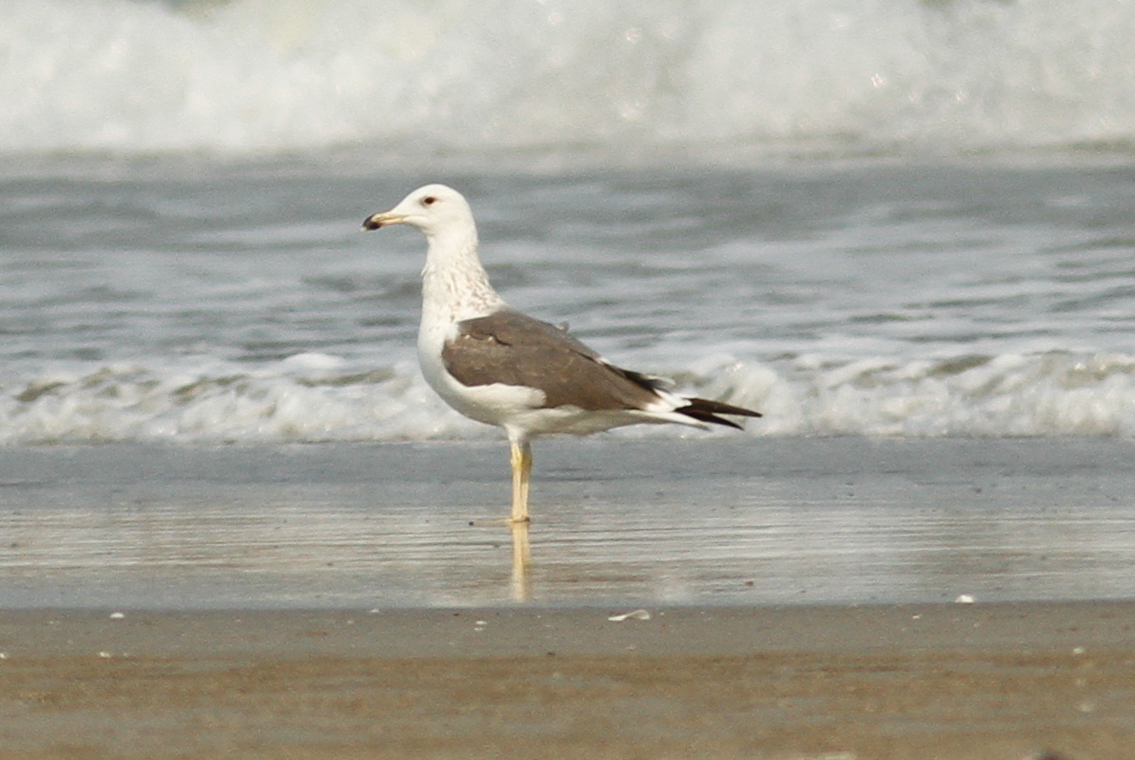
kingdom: Animalia
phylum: Chordata
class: Aves
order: Charadriiformes
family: Laridae
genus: Larus
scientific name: Larus fuscus
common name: Lesser black-backed gull
